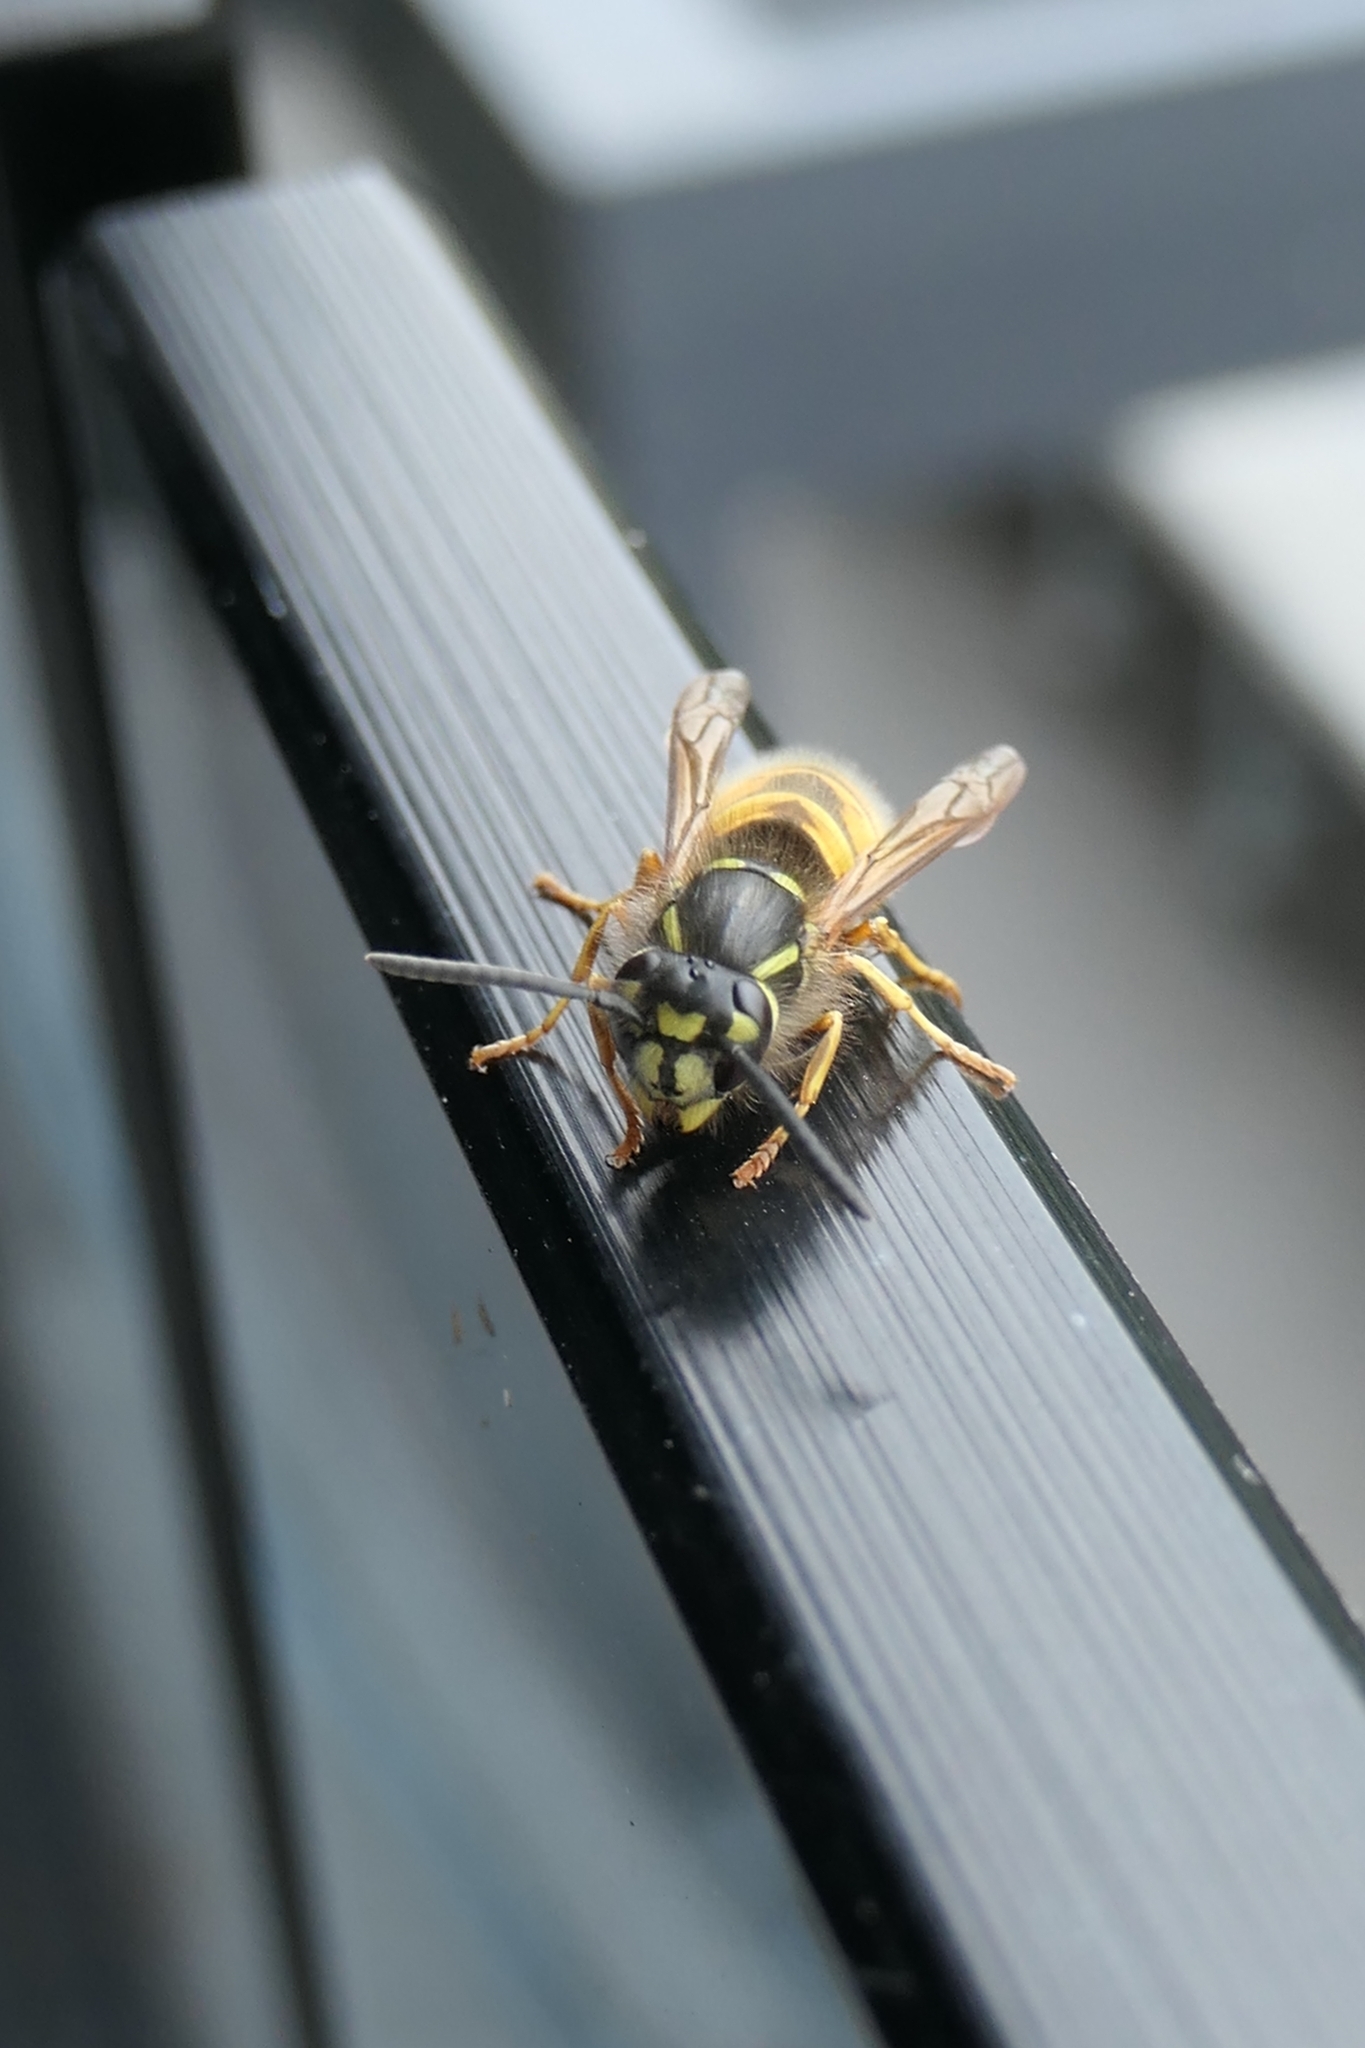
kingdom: Animalia
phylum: Arthropoda
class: Insecta
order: Hymenoptera
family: Vespidae
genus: Vespula
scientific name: Vespula vulgaris
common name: Common wasp
